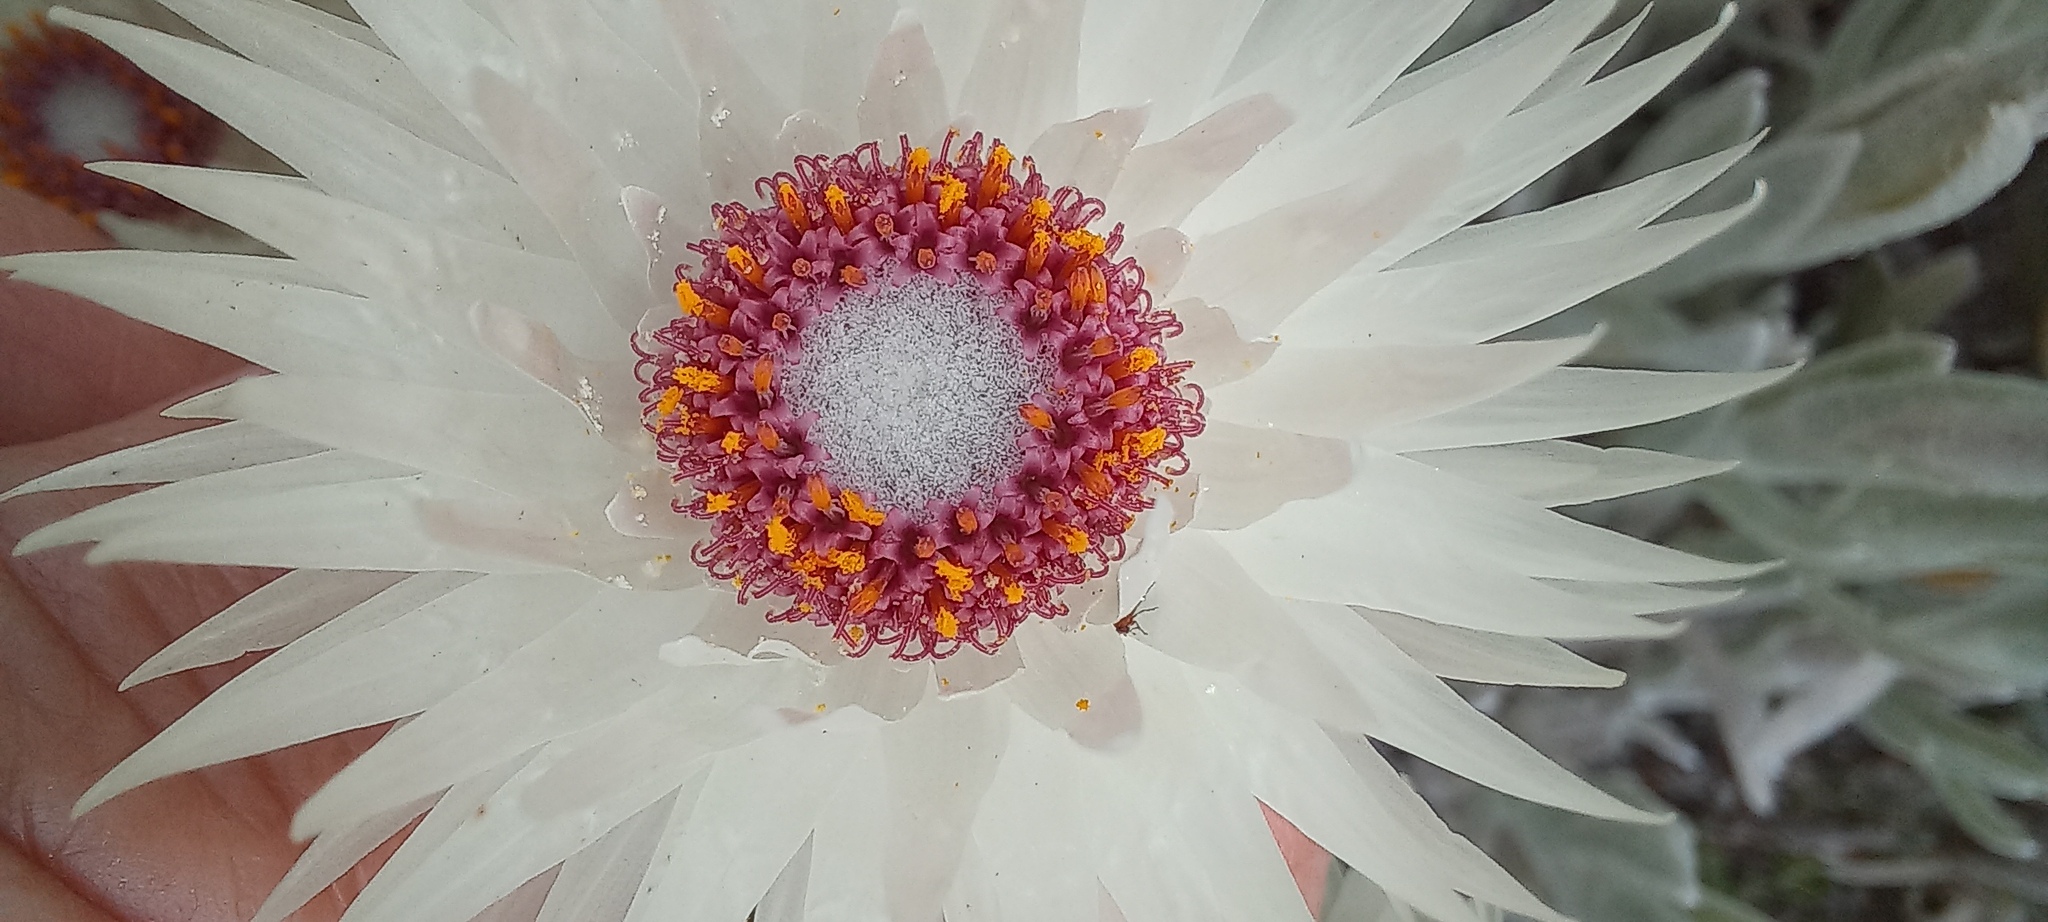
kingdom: Plantae
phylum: Tracheophyta
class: Magnoliopsida
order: Asterales
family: Asteraceae
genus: Syncarpha
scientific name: Syncarpha vestita
